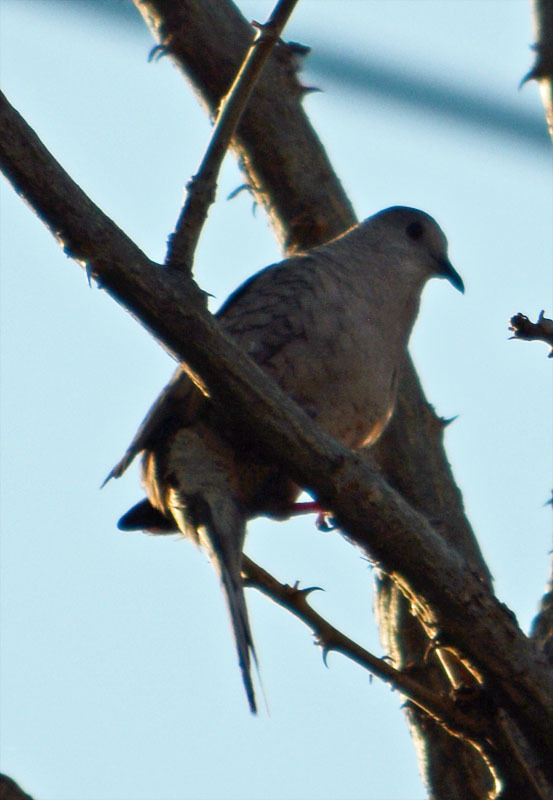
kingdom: Animalia
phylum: Chordata
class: Aves
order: Columbiformes
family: Columbidae
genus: Columbina
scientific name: Columbina inca
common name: Inca dove
